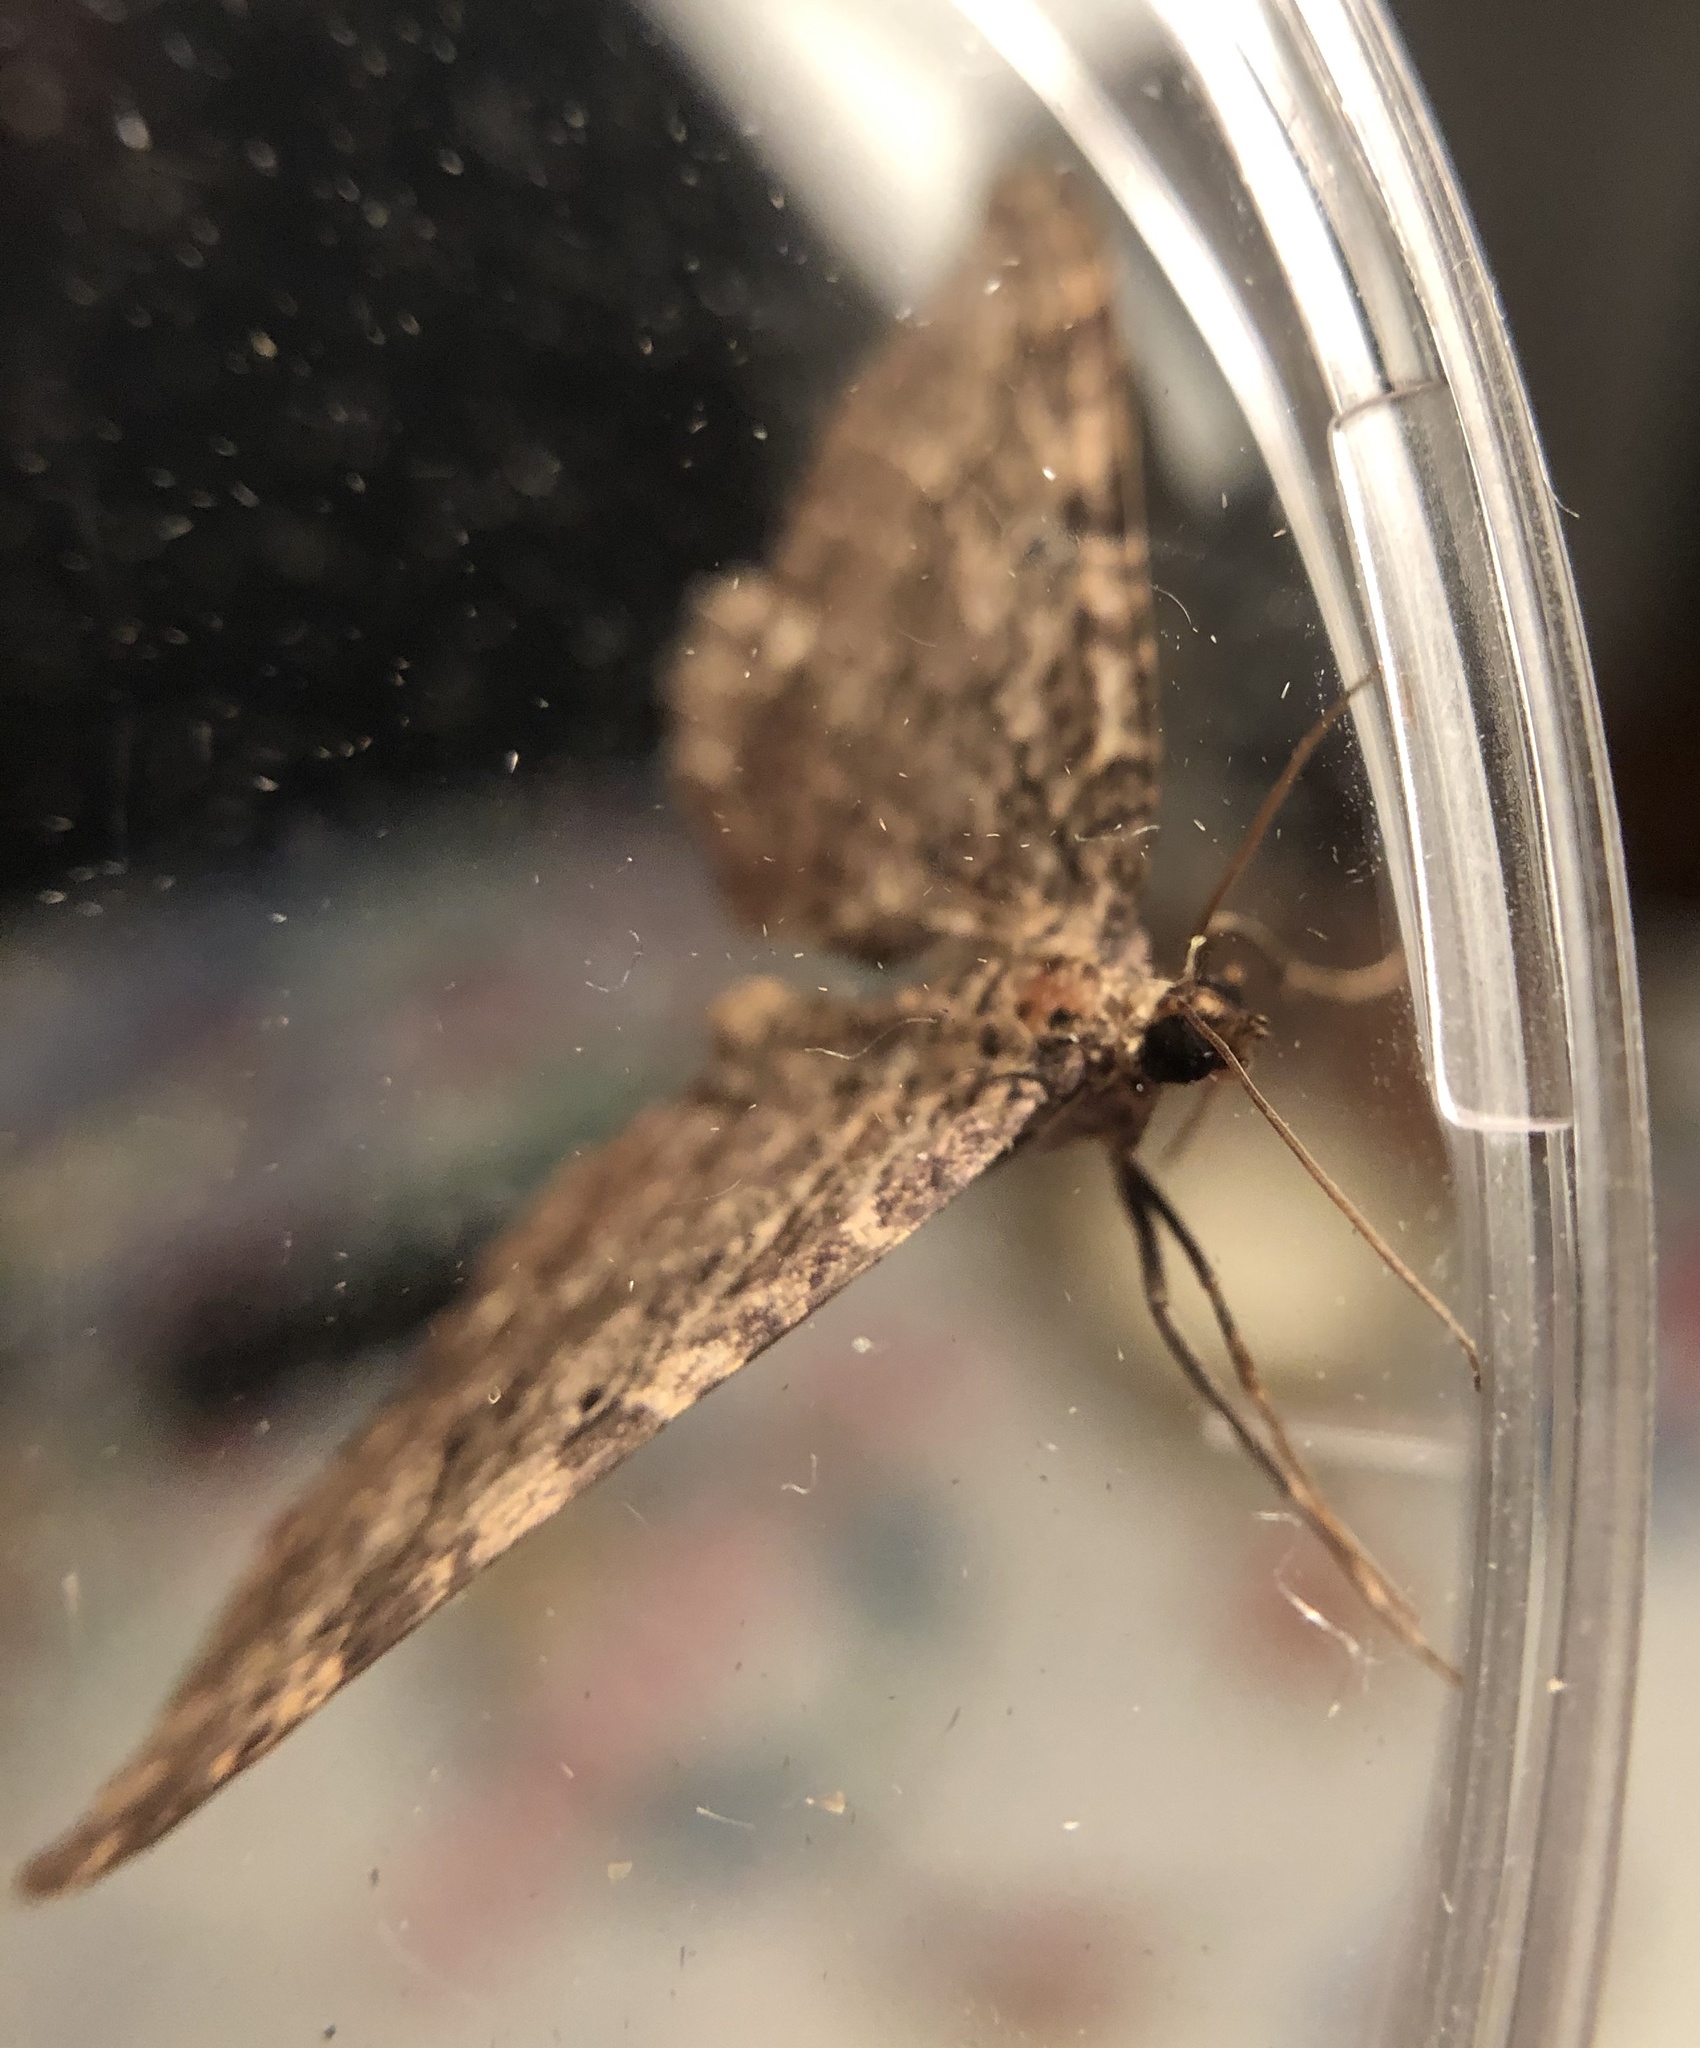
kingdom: Animalia
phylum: Arthropoda
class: Insecta
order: Lepidoptera
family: Geometridae
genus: Rheumaptera
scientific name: Rheumaptera
